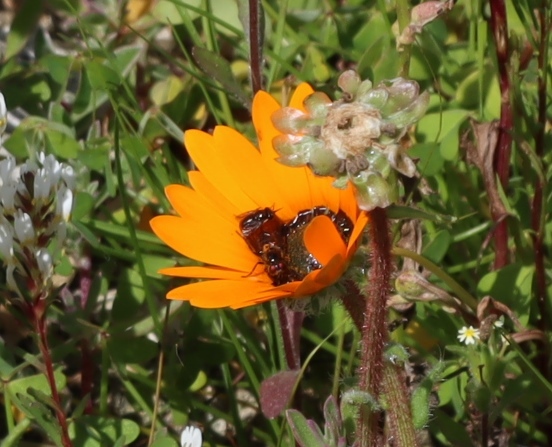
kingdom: Animalia
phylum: Arthropoda
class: Insecta
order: Diptera
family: Bombyliidae
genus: Megapalpus
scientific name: Megapalpus capensis
